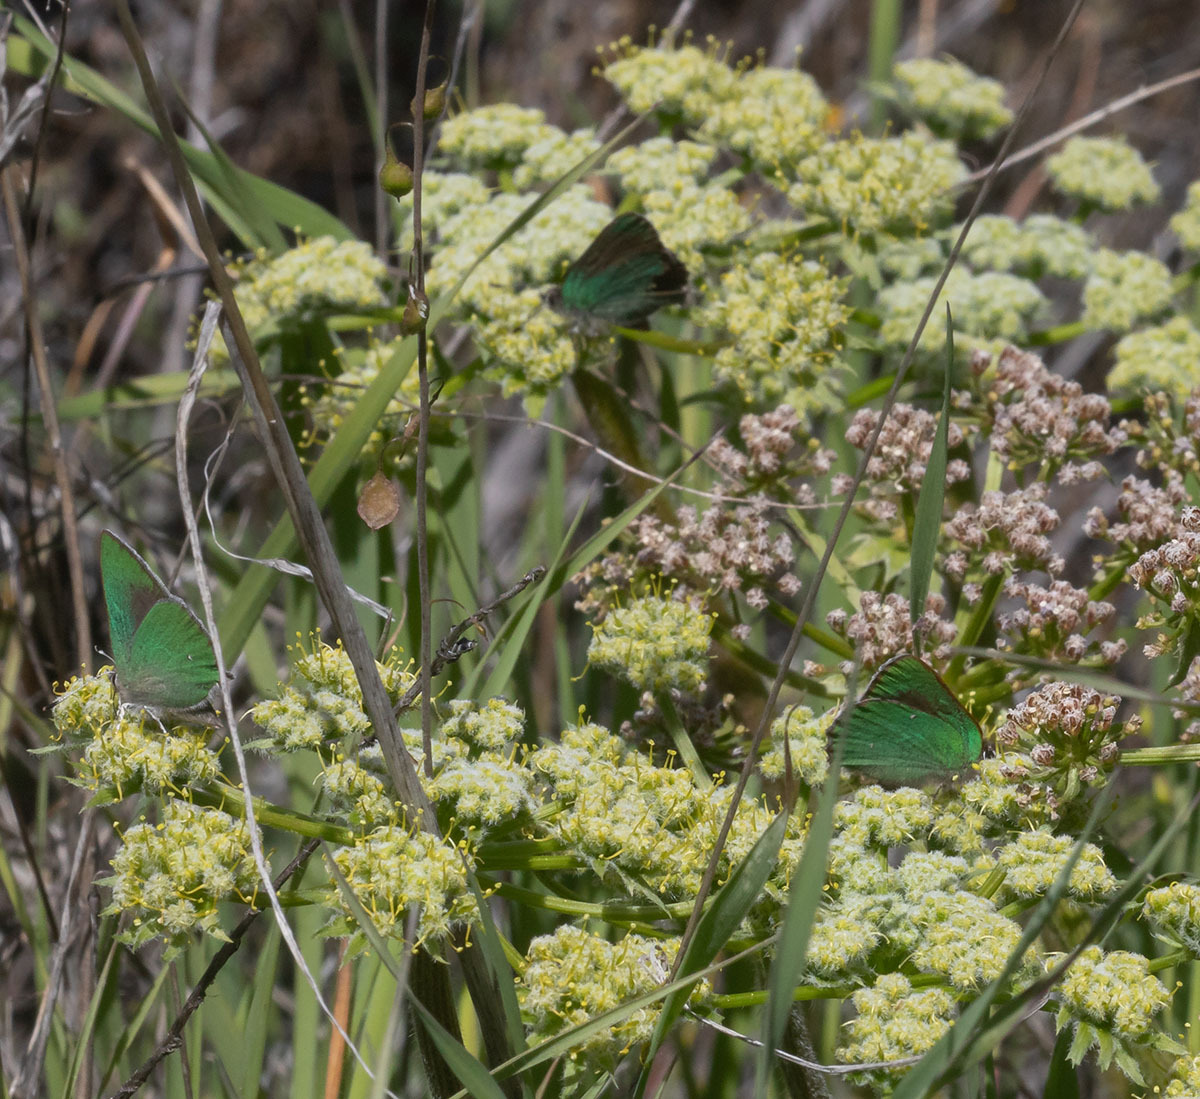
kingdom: Animalia
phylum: Arthropoda
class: Insecta
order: Lepidoptera
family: Lycaenidae
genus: Callophrys
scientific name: Callophrys dumetorum
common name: Bramble hairstreak
